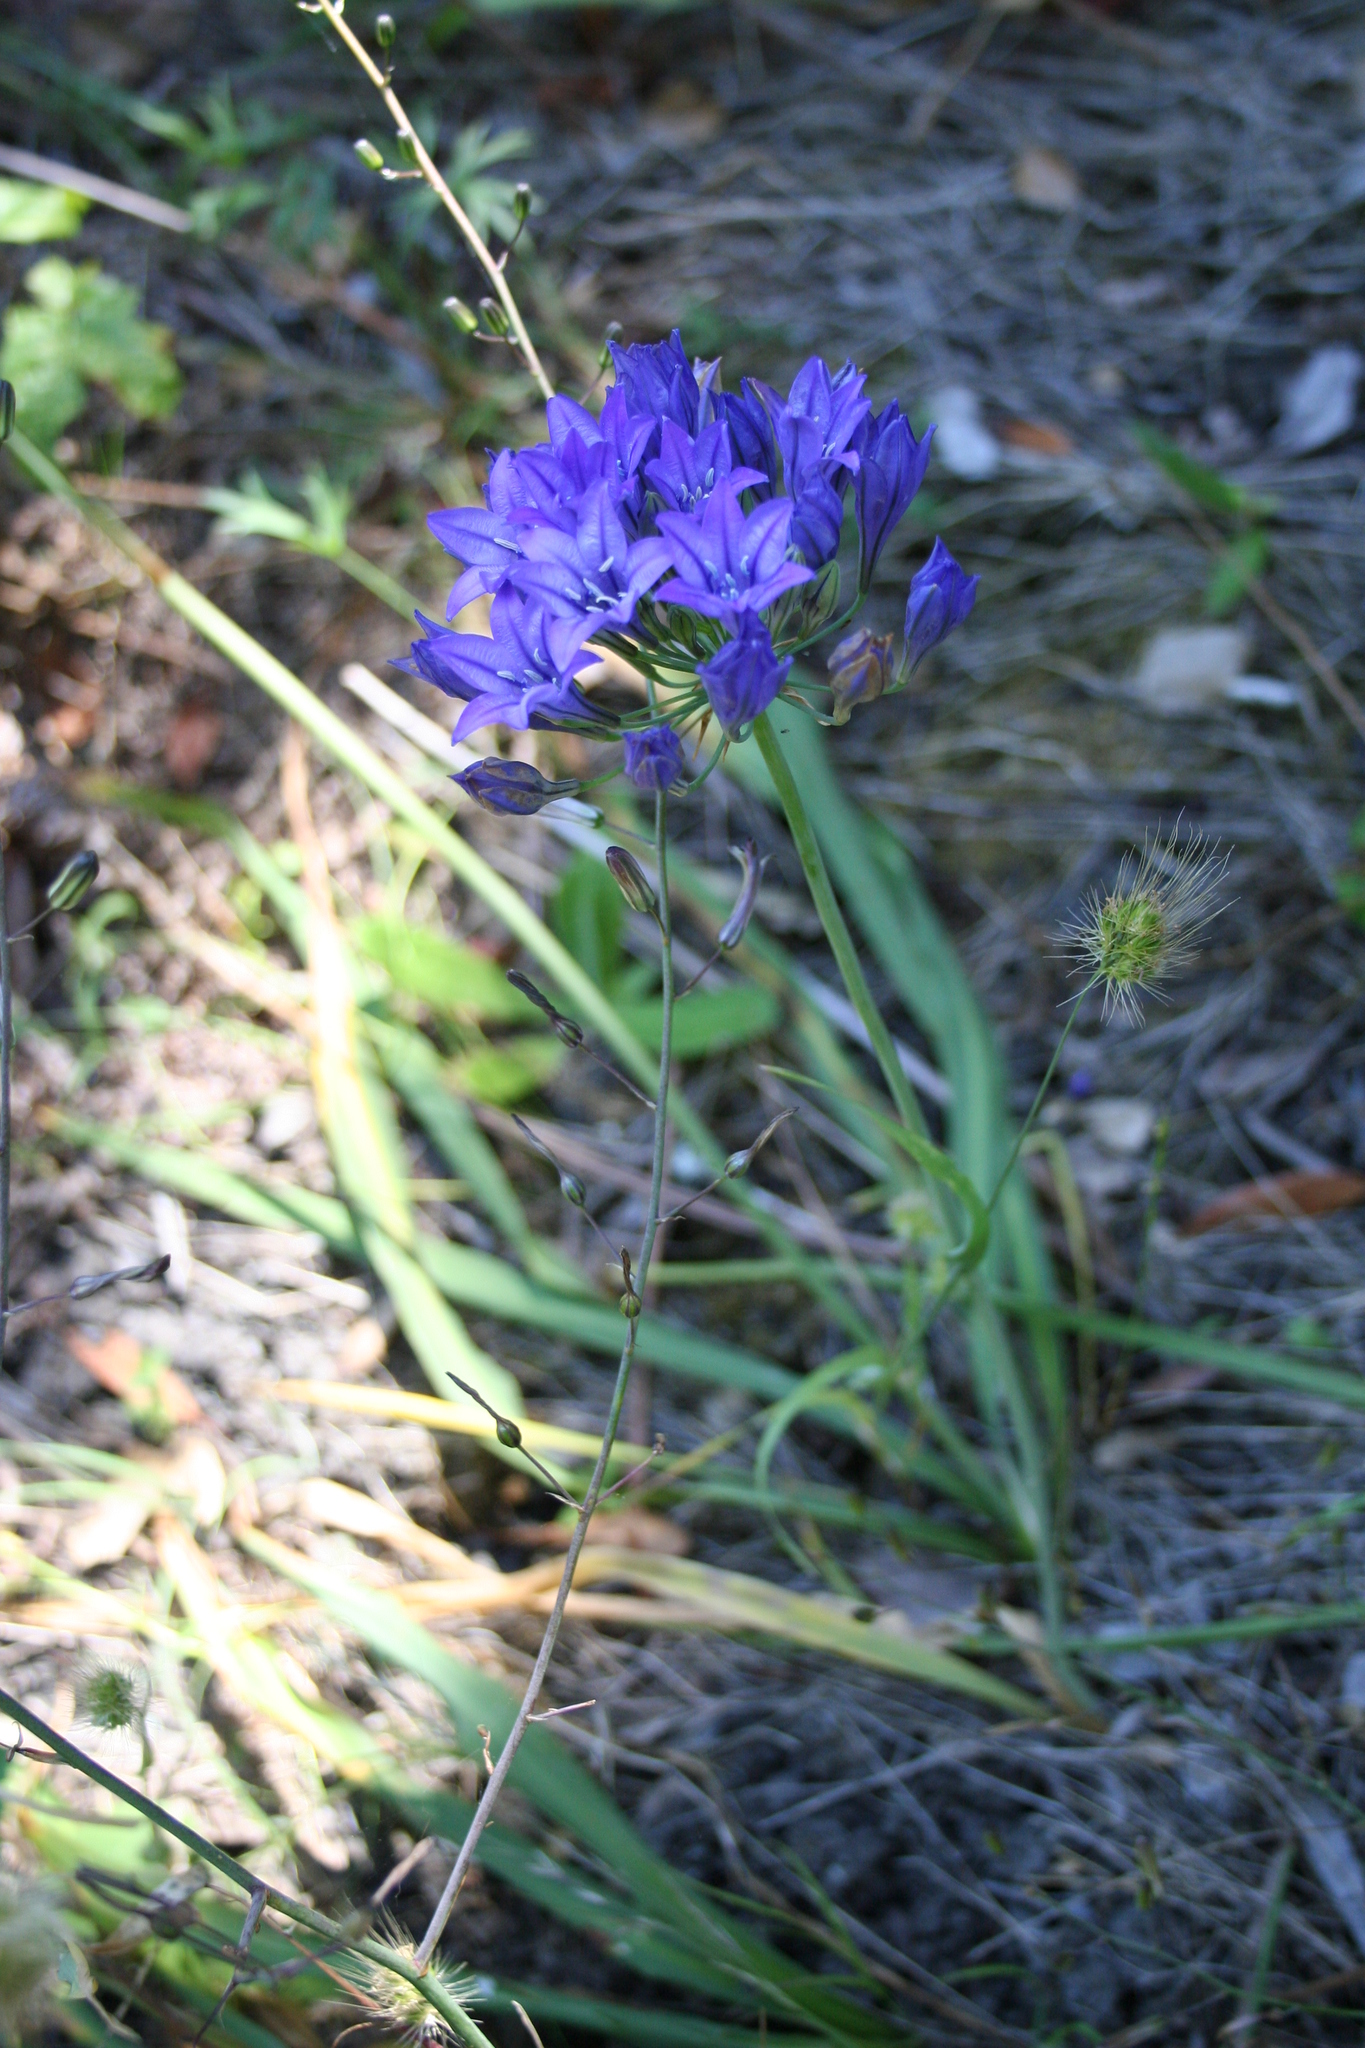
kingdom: Plantae
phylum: Tracheophyta
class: Liliopsida
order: Asparagales
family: Asparagaceae
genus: Triteleia
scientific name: Triteleia laxa
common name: Triplet-lily
